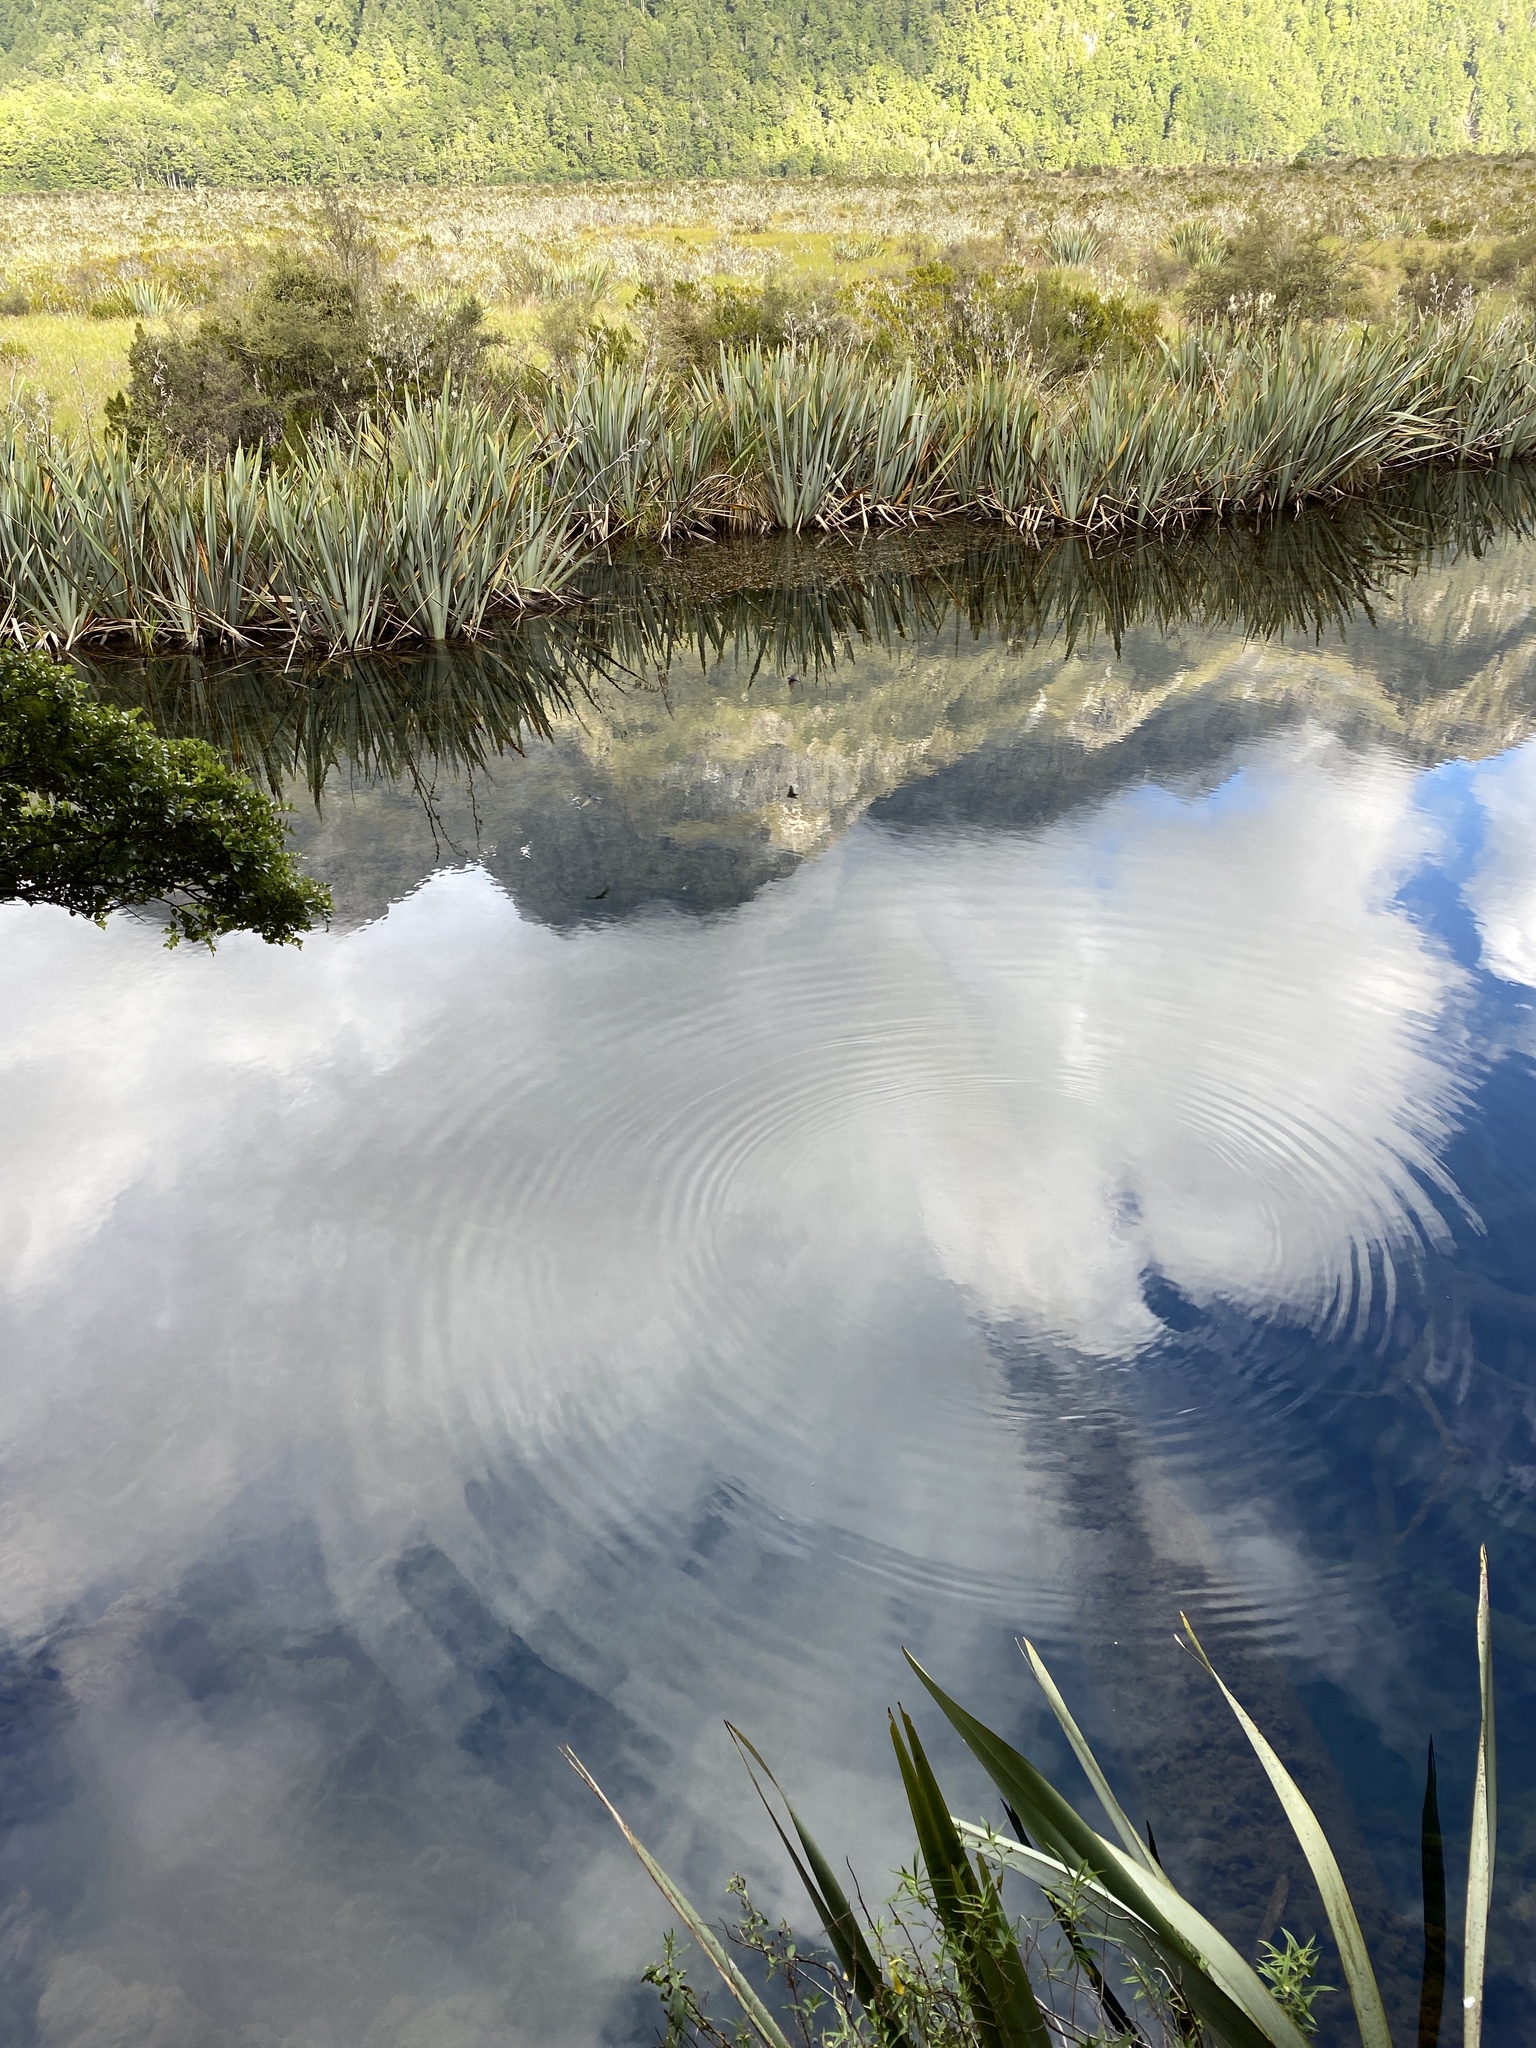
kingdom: Animalia
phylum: Chordata
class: Aves
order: Passeriformes
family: Hirundinidae
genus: Hirundo
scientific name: Hirundo neoxena
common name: Welcome swallow
